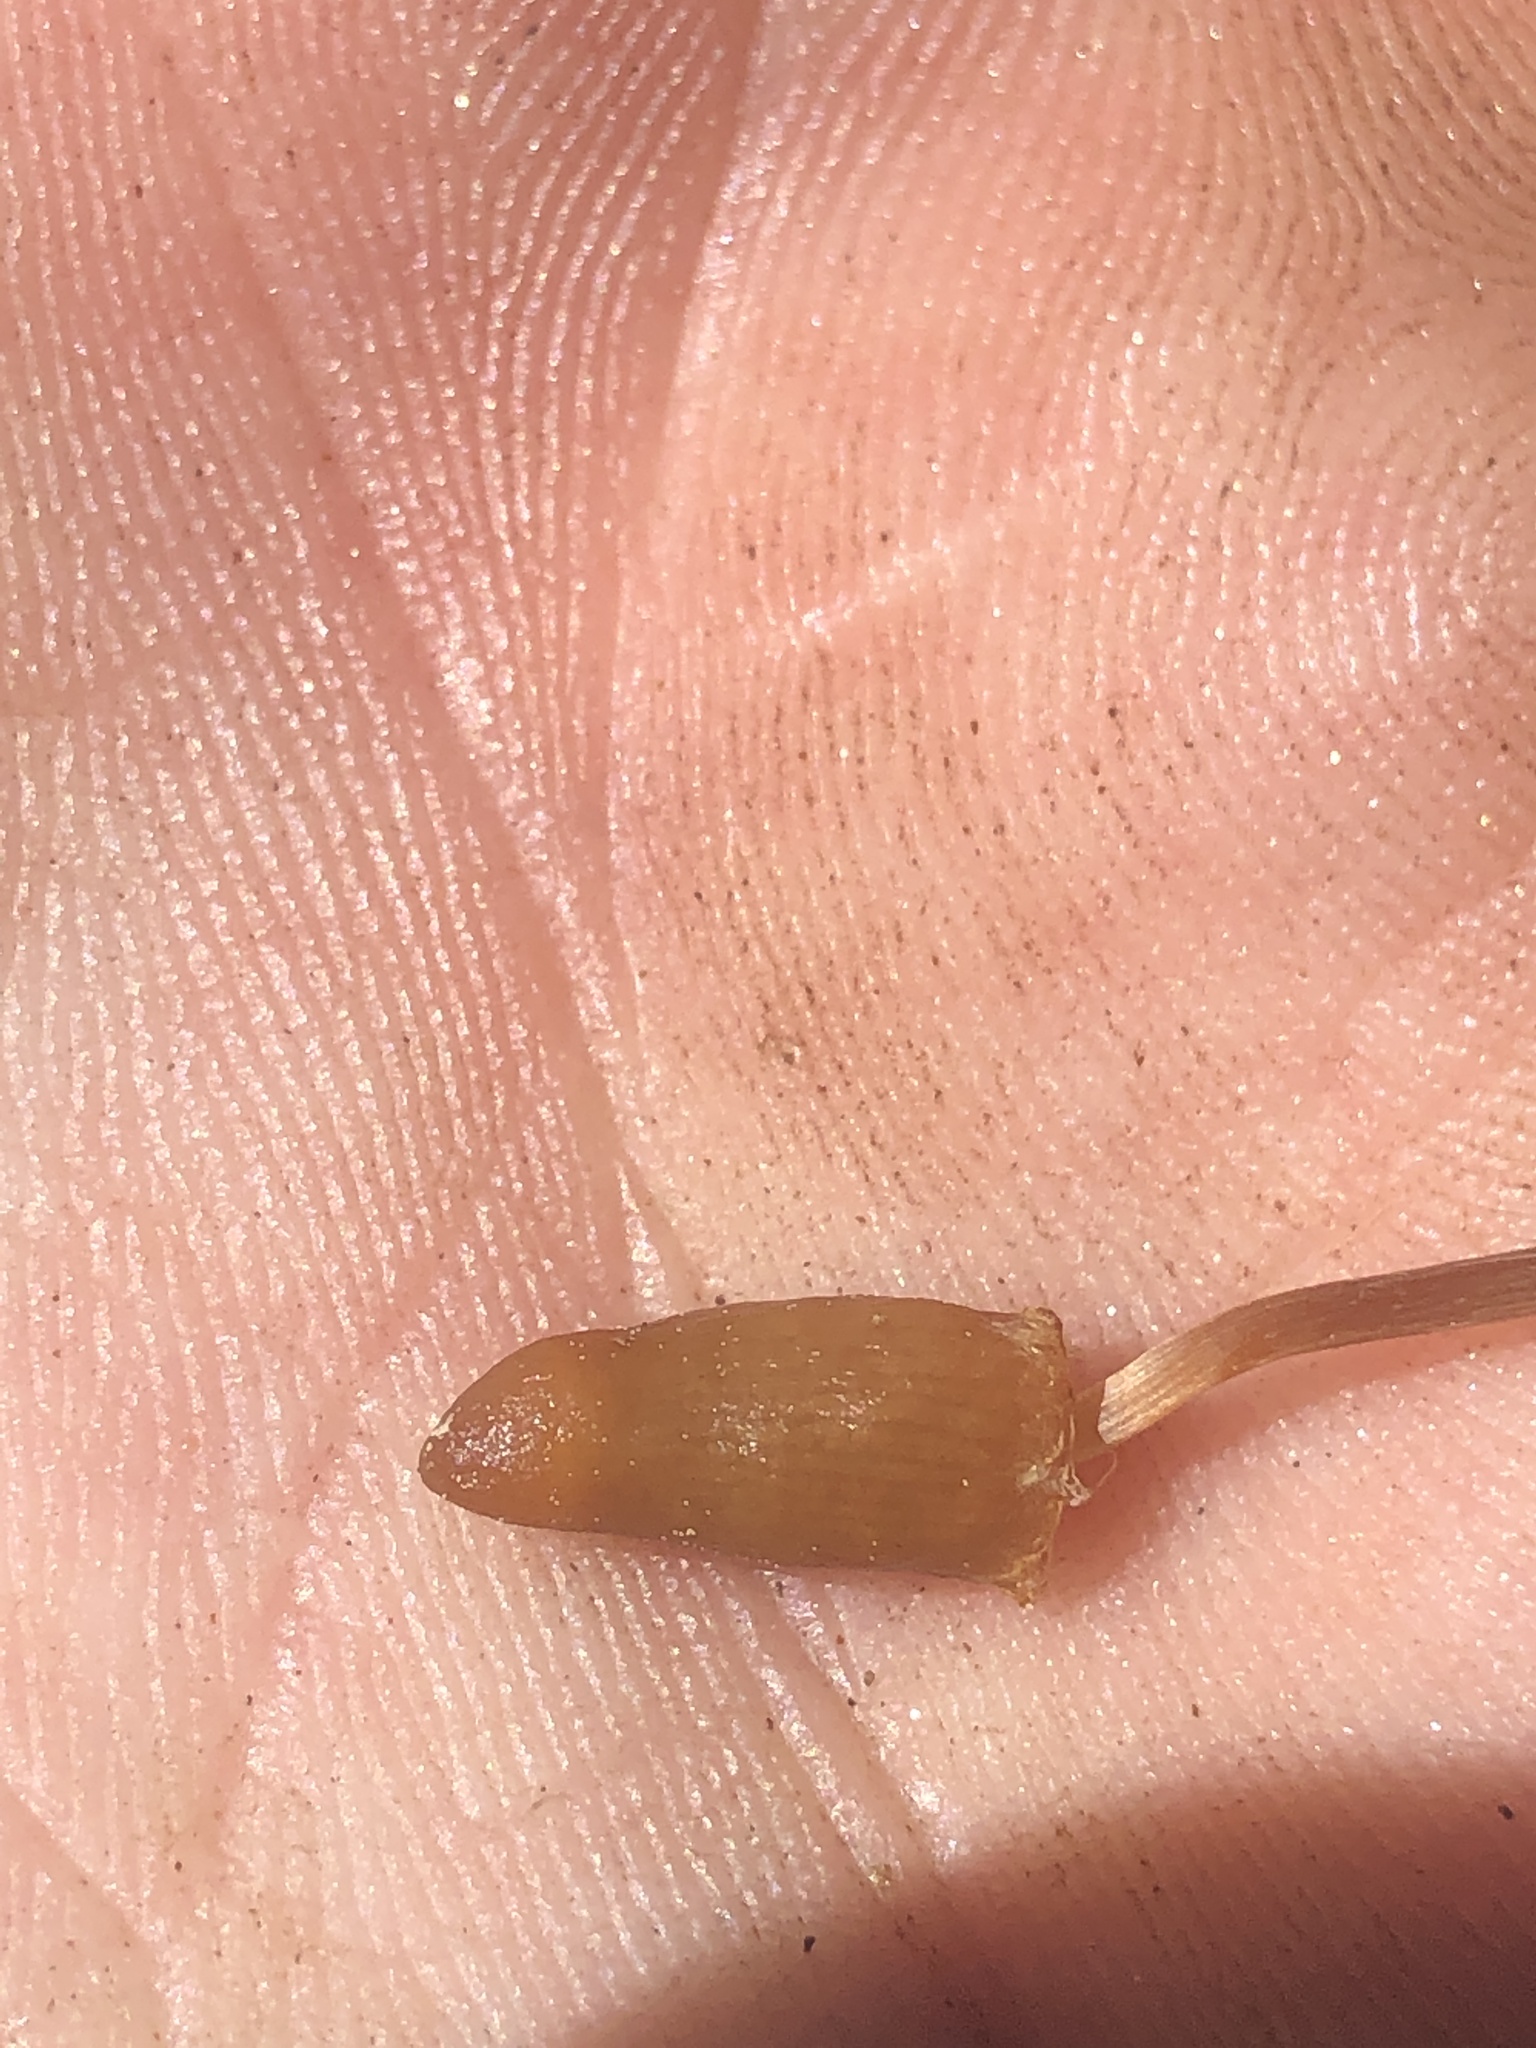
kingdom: Fungi
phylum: Basidiomycota
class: Agaricomycetes
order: Agaricales
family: Bolbitiaceae
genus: Galeropsis
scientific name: Galeropsis polytrichoides
